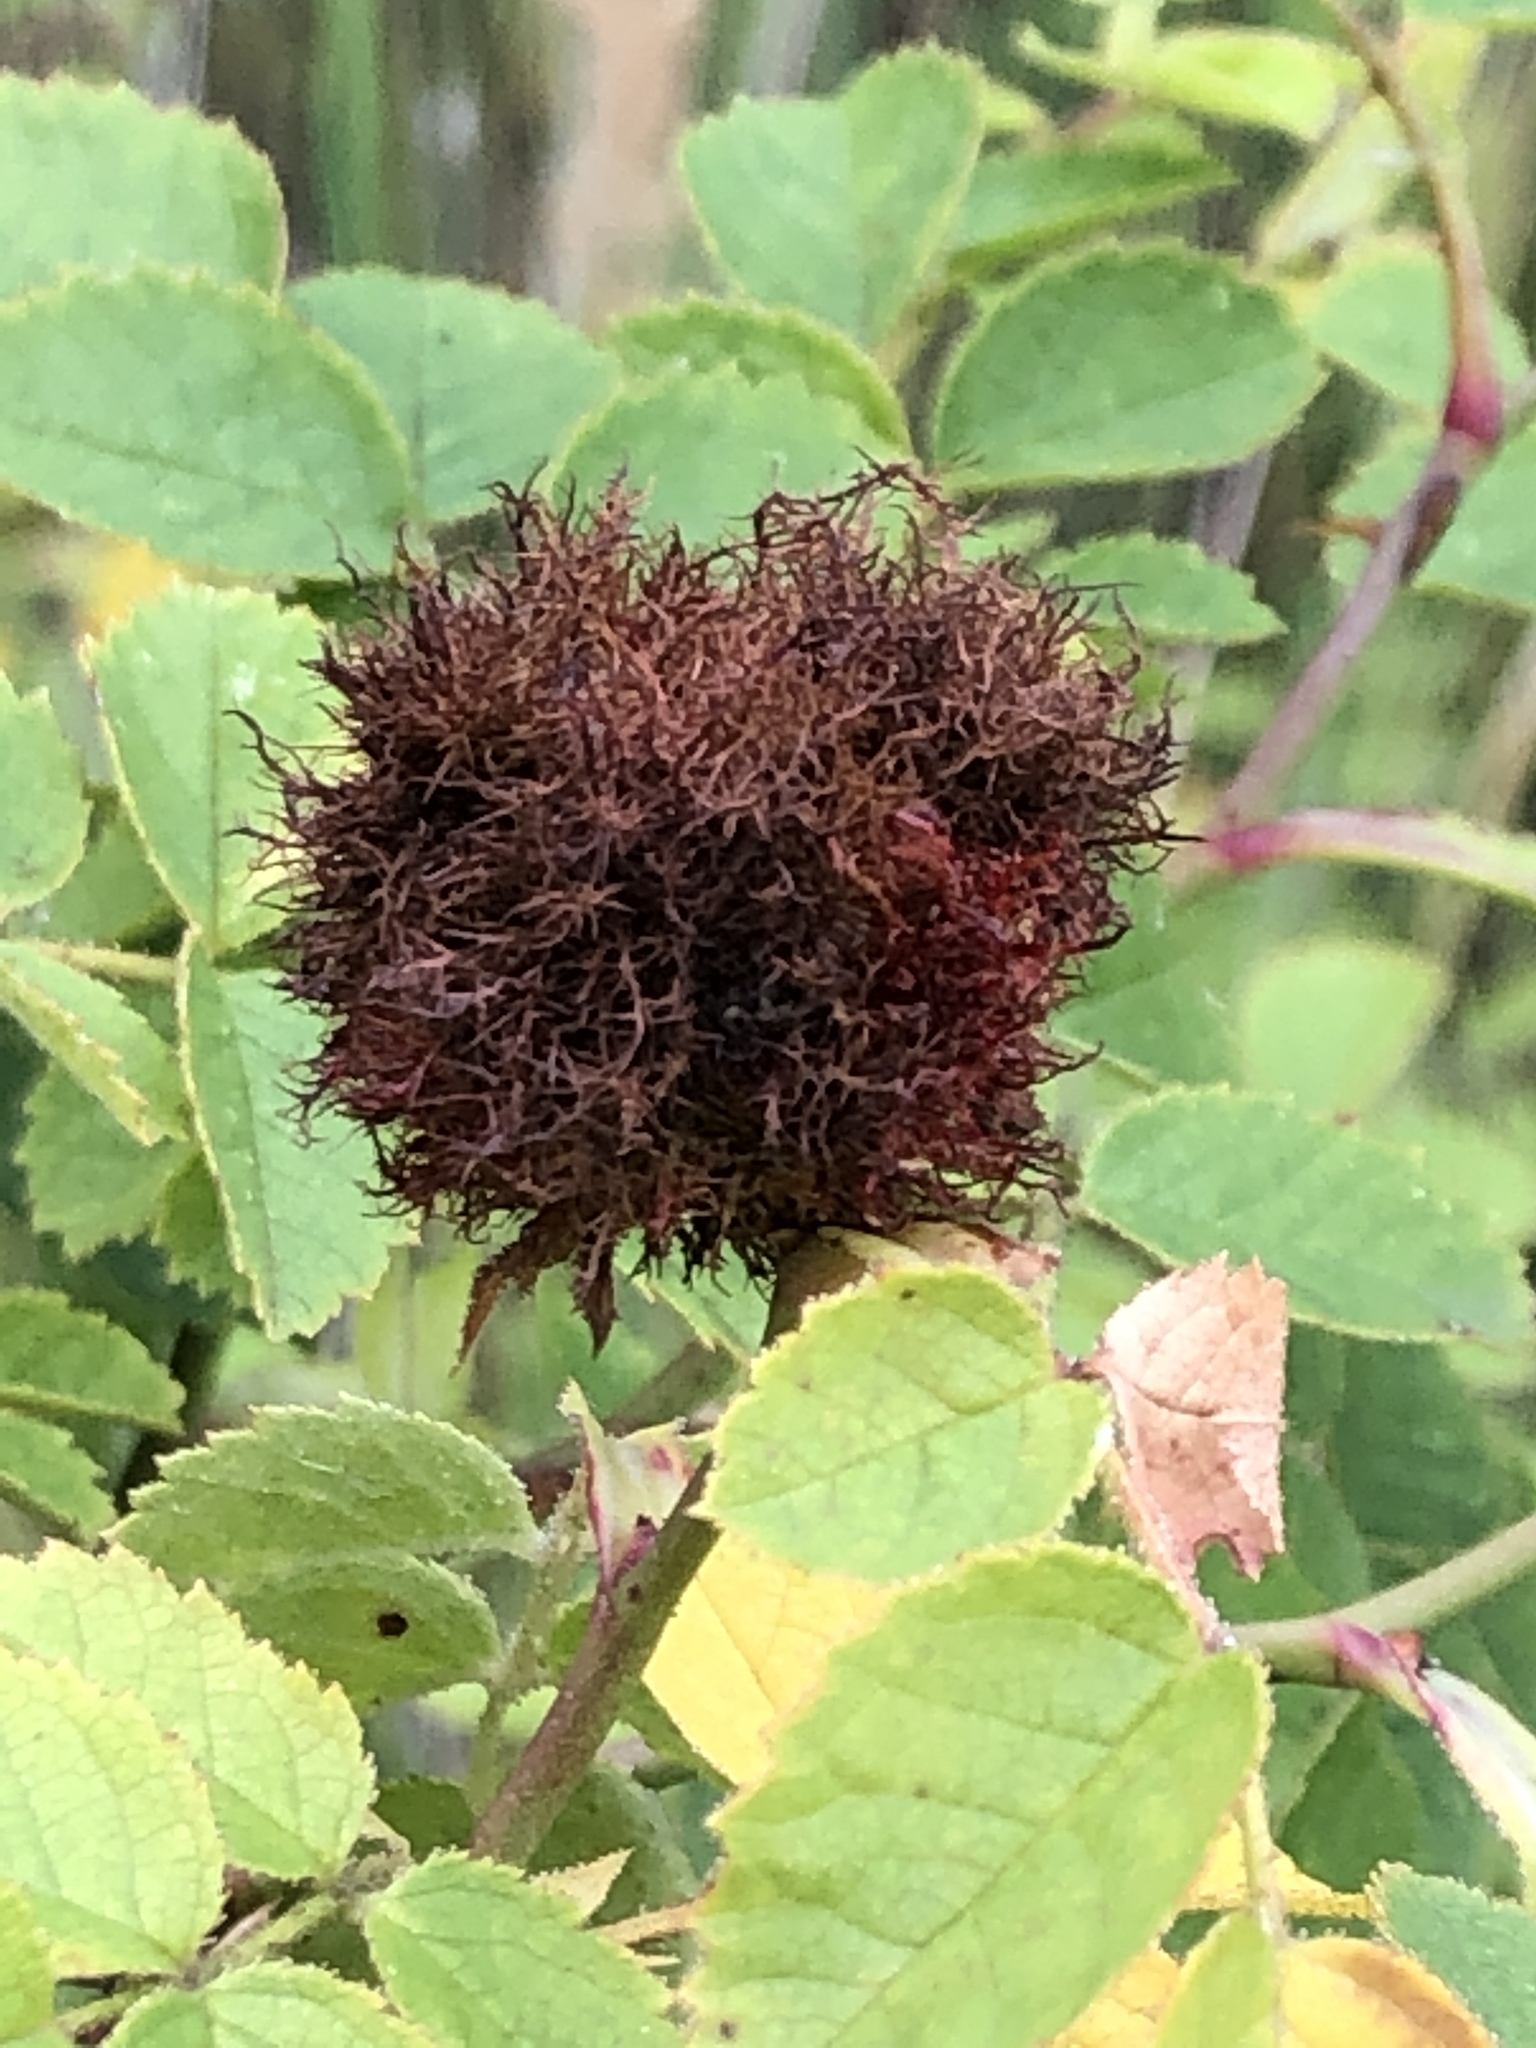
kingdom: Animalia
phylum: Arthropoda
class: Insecta
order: Hymenoptera
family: Cynipidae
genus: Diplolepis
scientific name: Diplolepis rosae
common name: Bedeguar gall
